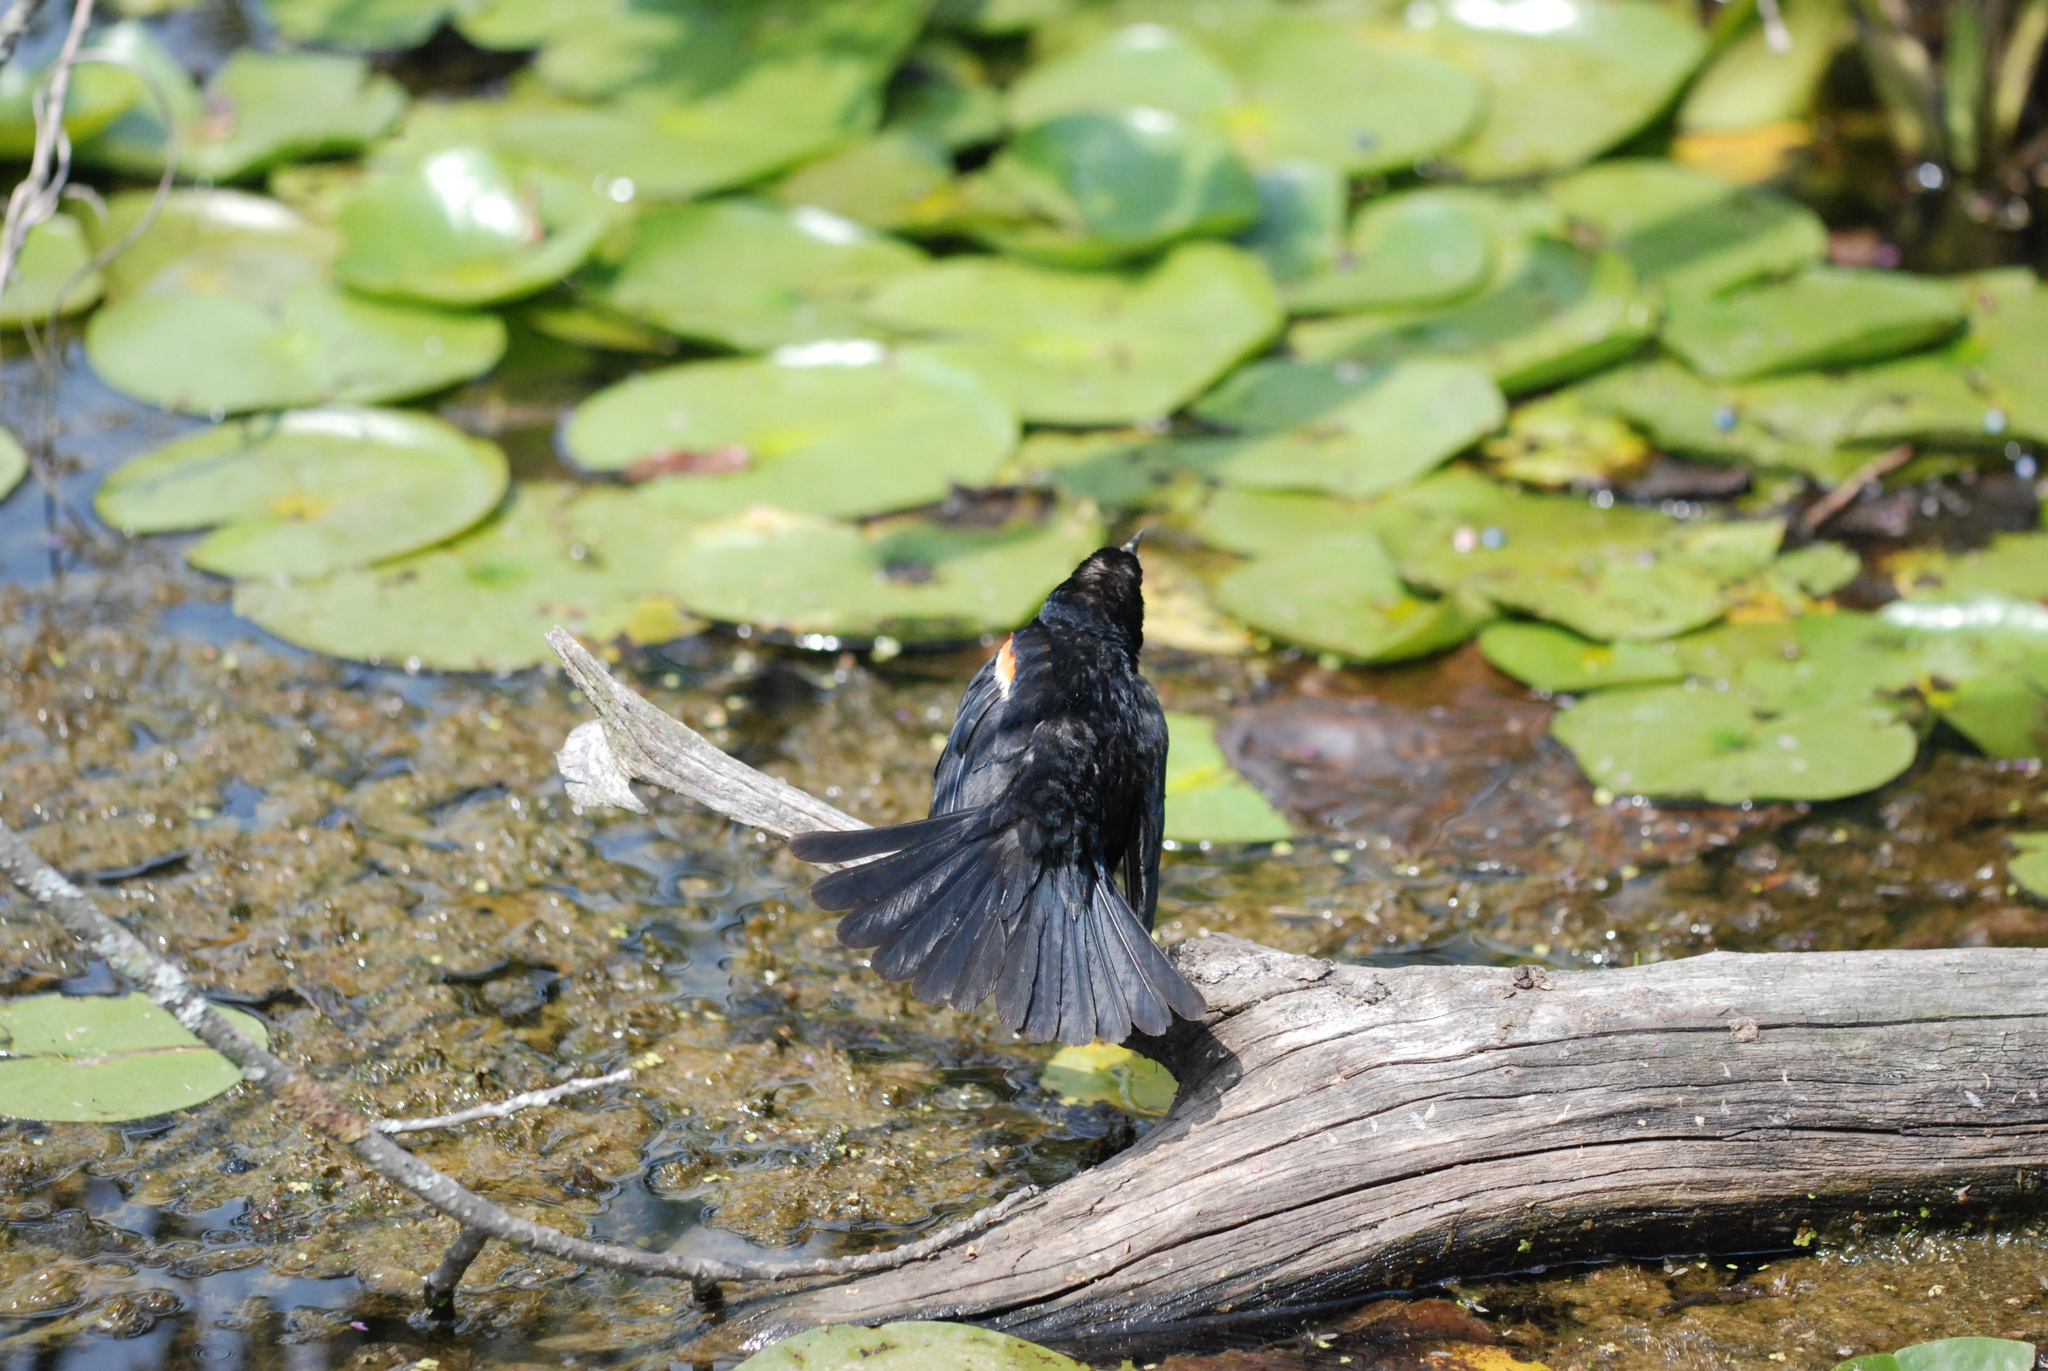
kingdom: Animalia
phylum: Chordata
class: Aves
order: Passeriformes
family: Icteridae
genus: Agelaius
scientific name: Agelaius phoeniceus
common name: Red-winged blackbird
